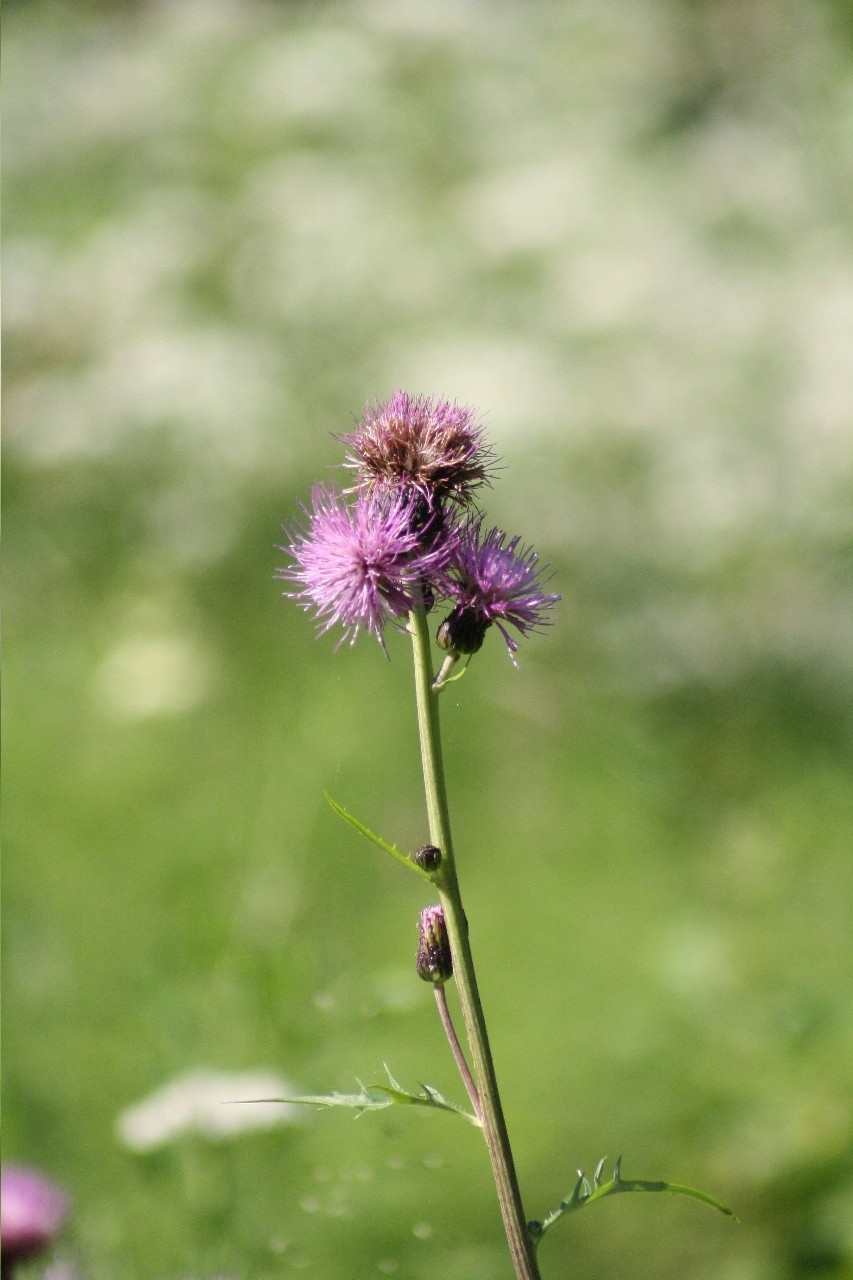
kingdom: Plantae
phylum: Tracheophyta
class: Magnoliopsida
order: Asterales
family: Asteraceae
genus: Cirsium
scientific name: Cirsium arvense
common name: Creeping thistle
